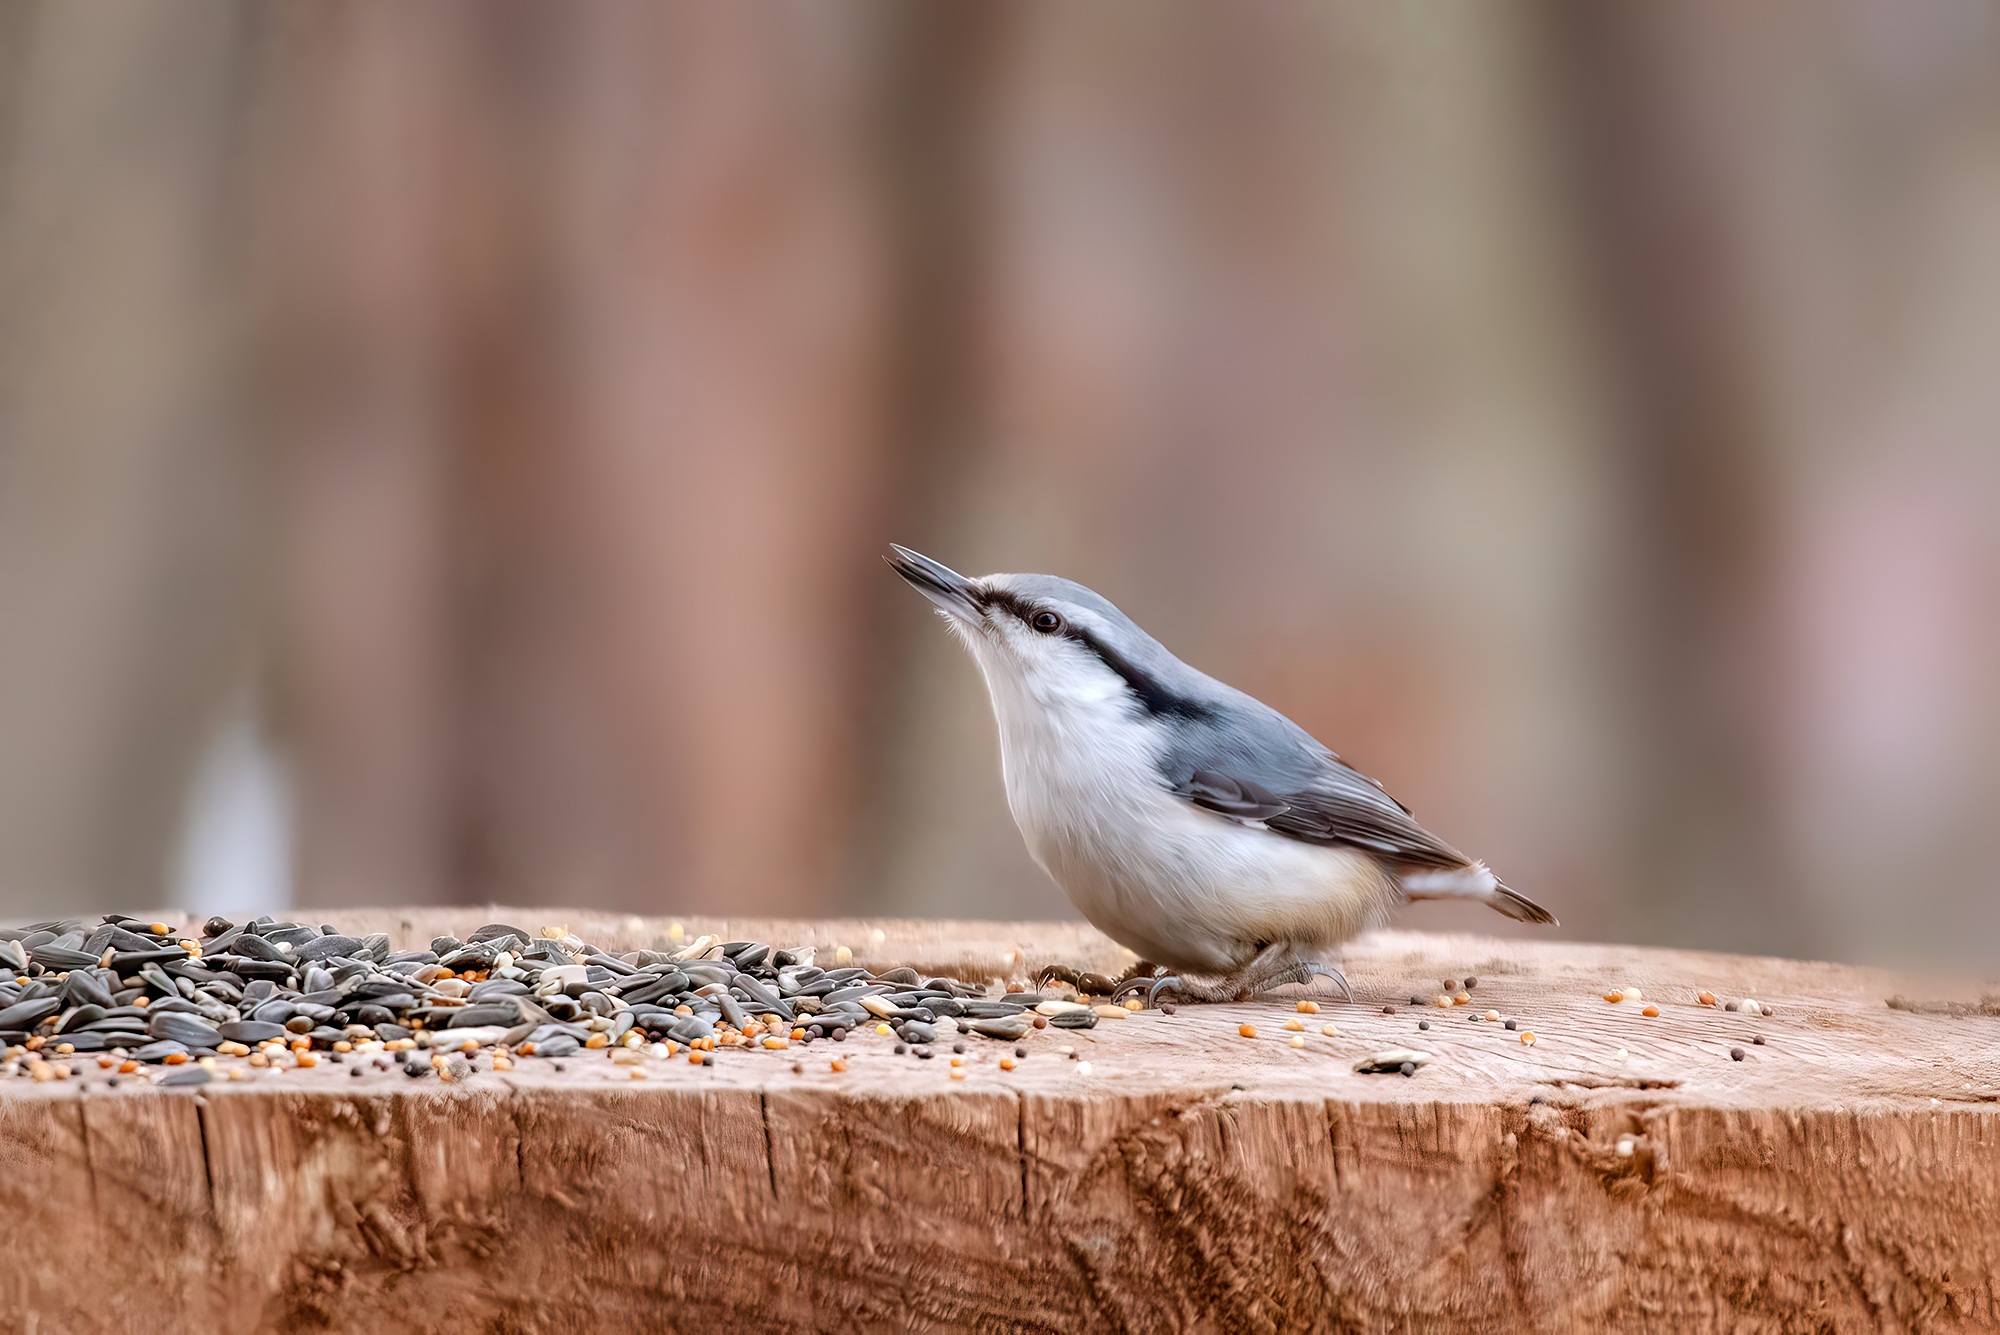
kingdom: Animalia
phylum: Chordata
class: Aves
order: Passeriformes
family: Sittidae
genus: Sitta
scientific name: Sitta europaea
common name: Eurasian nuthatch
